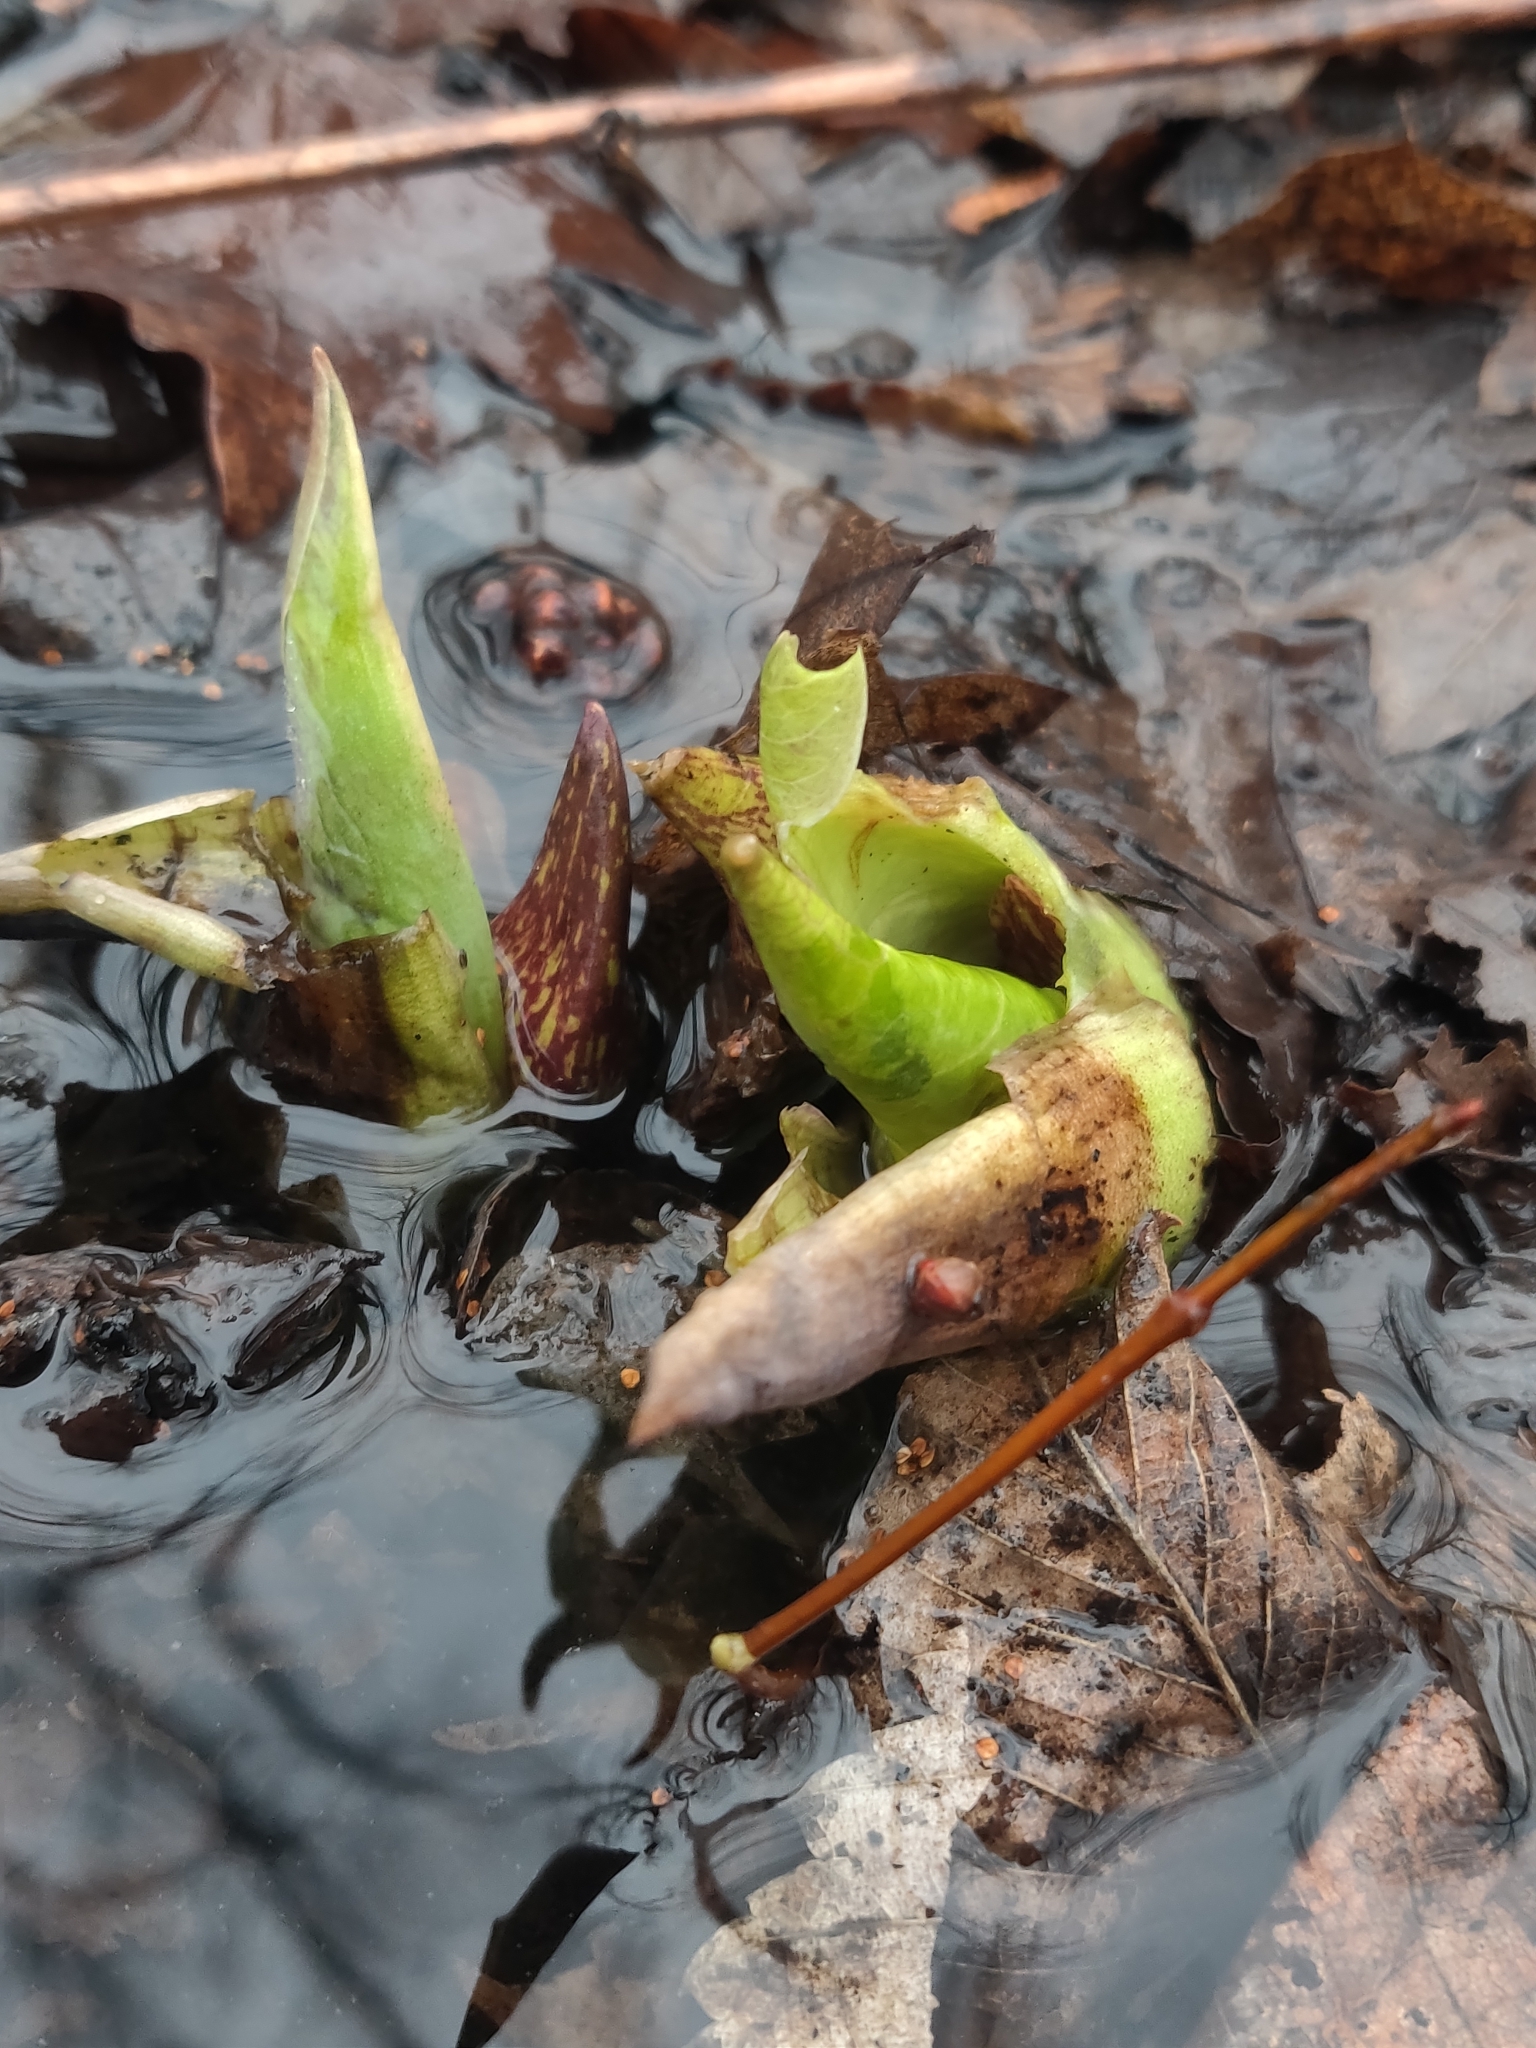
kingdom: Plantae
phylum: Tracheophyta
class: Liliopsida
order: Alismatales
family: Araceae
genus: Symplocarpus
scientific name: Symplocarpus foetidus
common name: Eastern skunk cabbage
